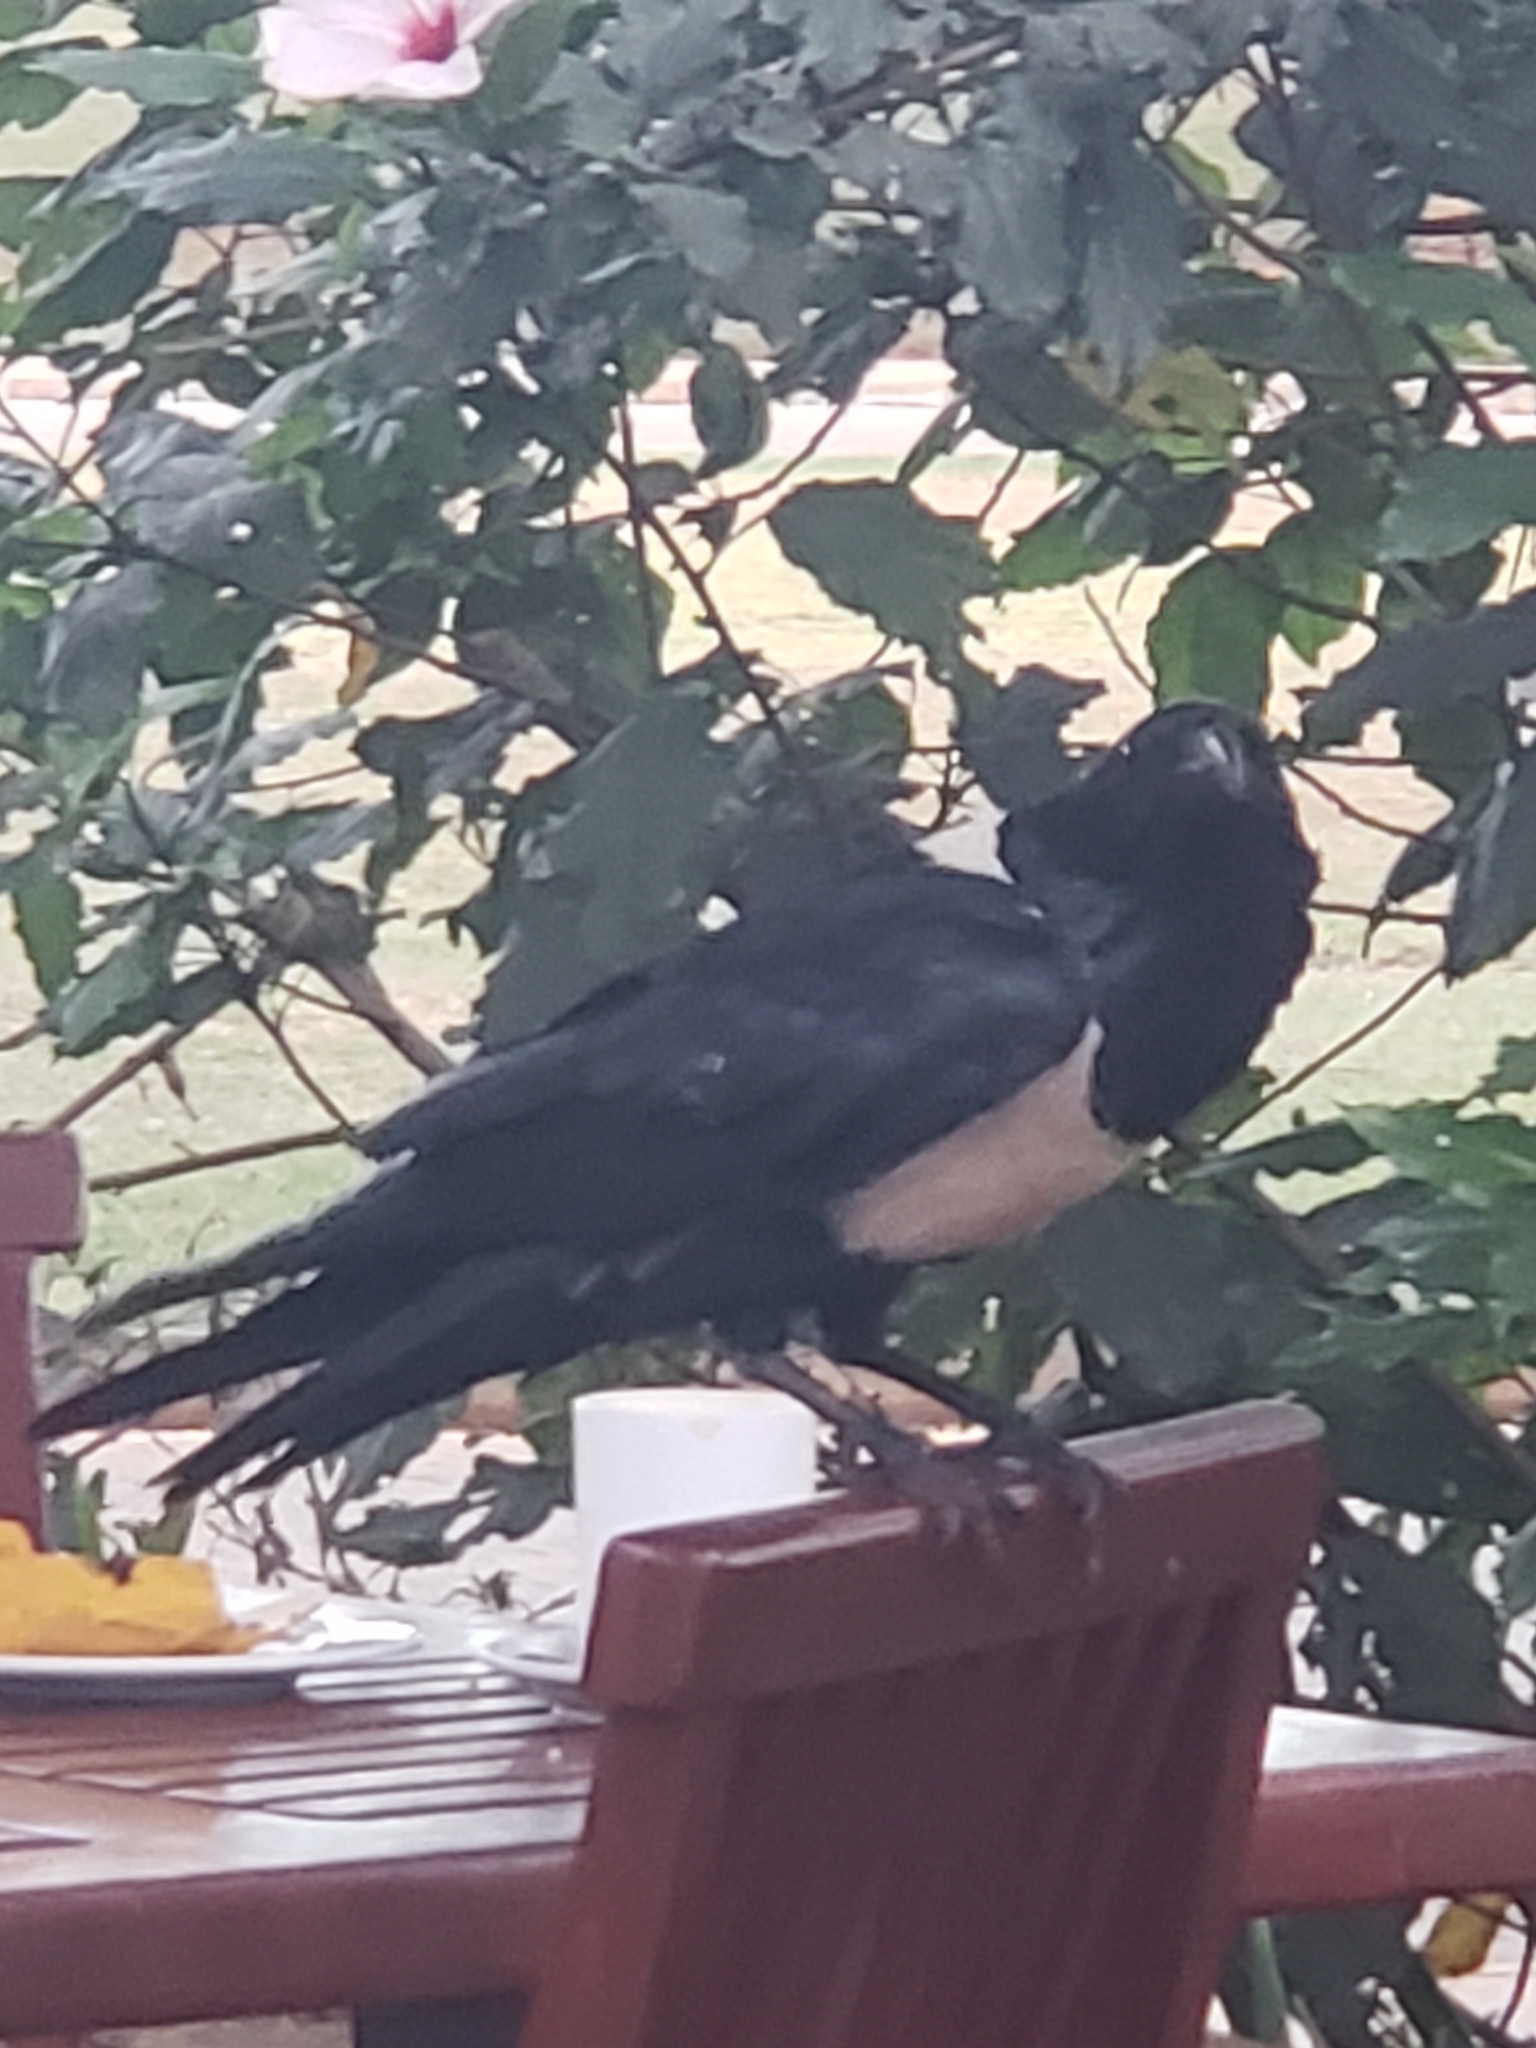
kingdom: Animalia
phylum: Chordata
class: Aves
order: Passeriformes
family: Corvidae
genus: Corvus
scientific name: Corvus albus
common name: Pied crow
